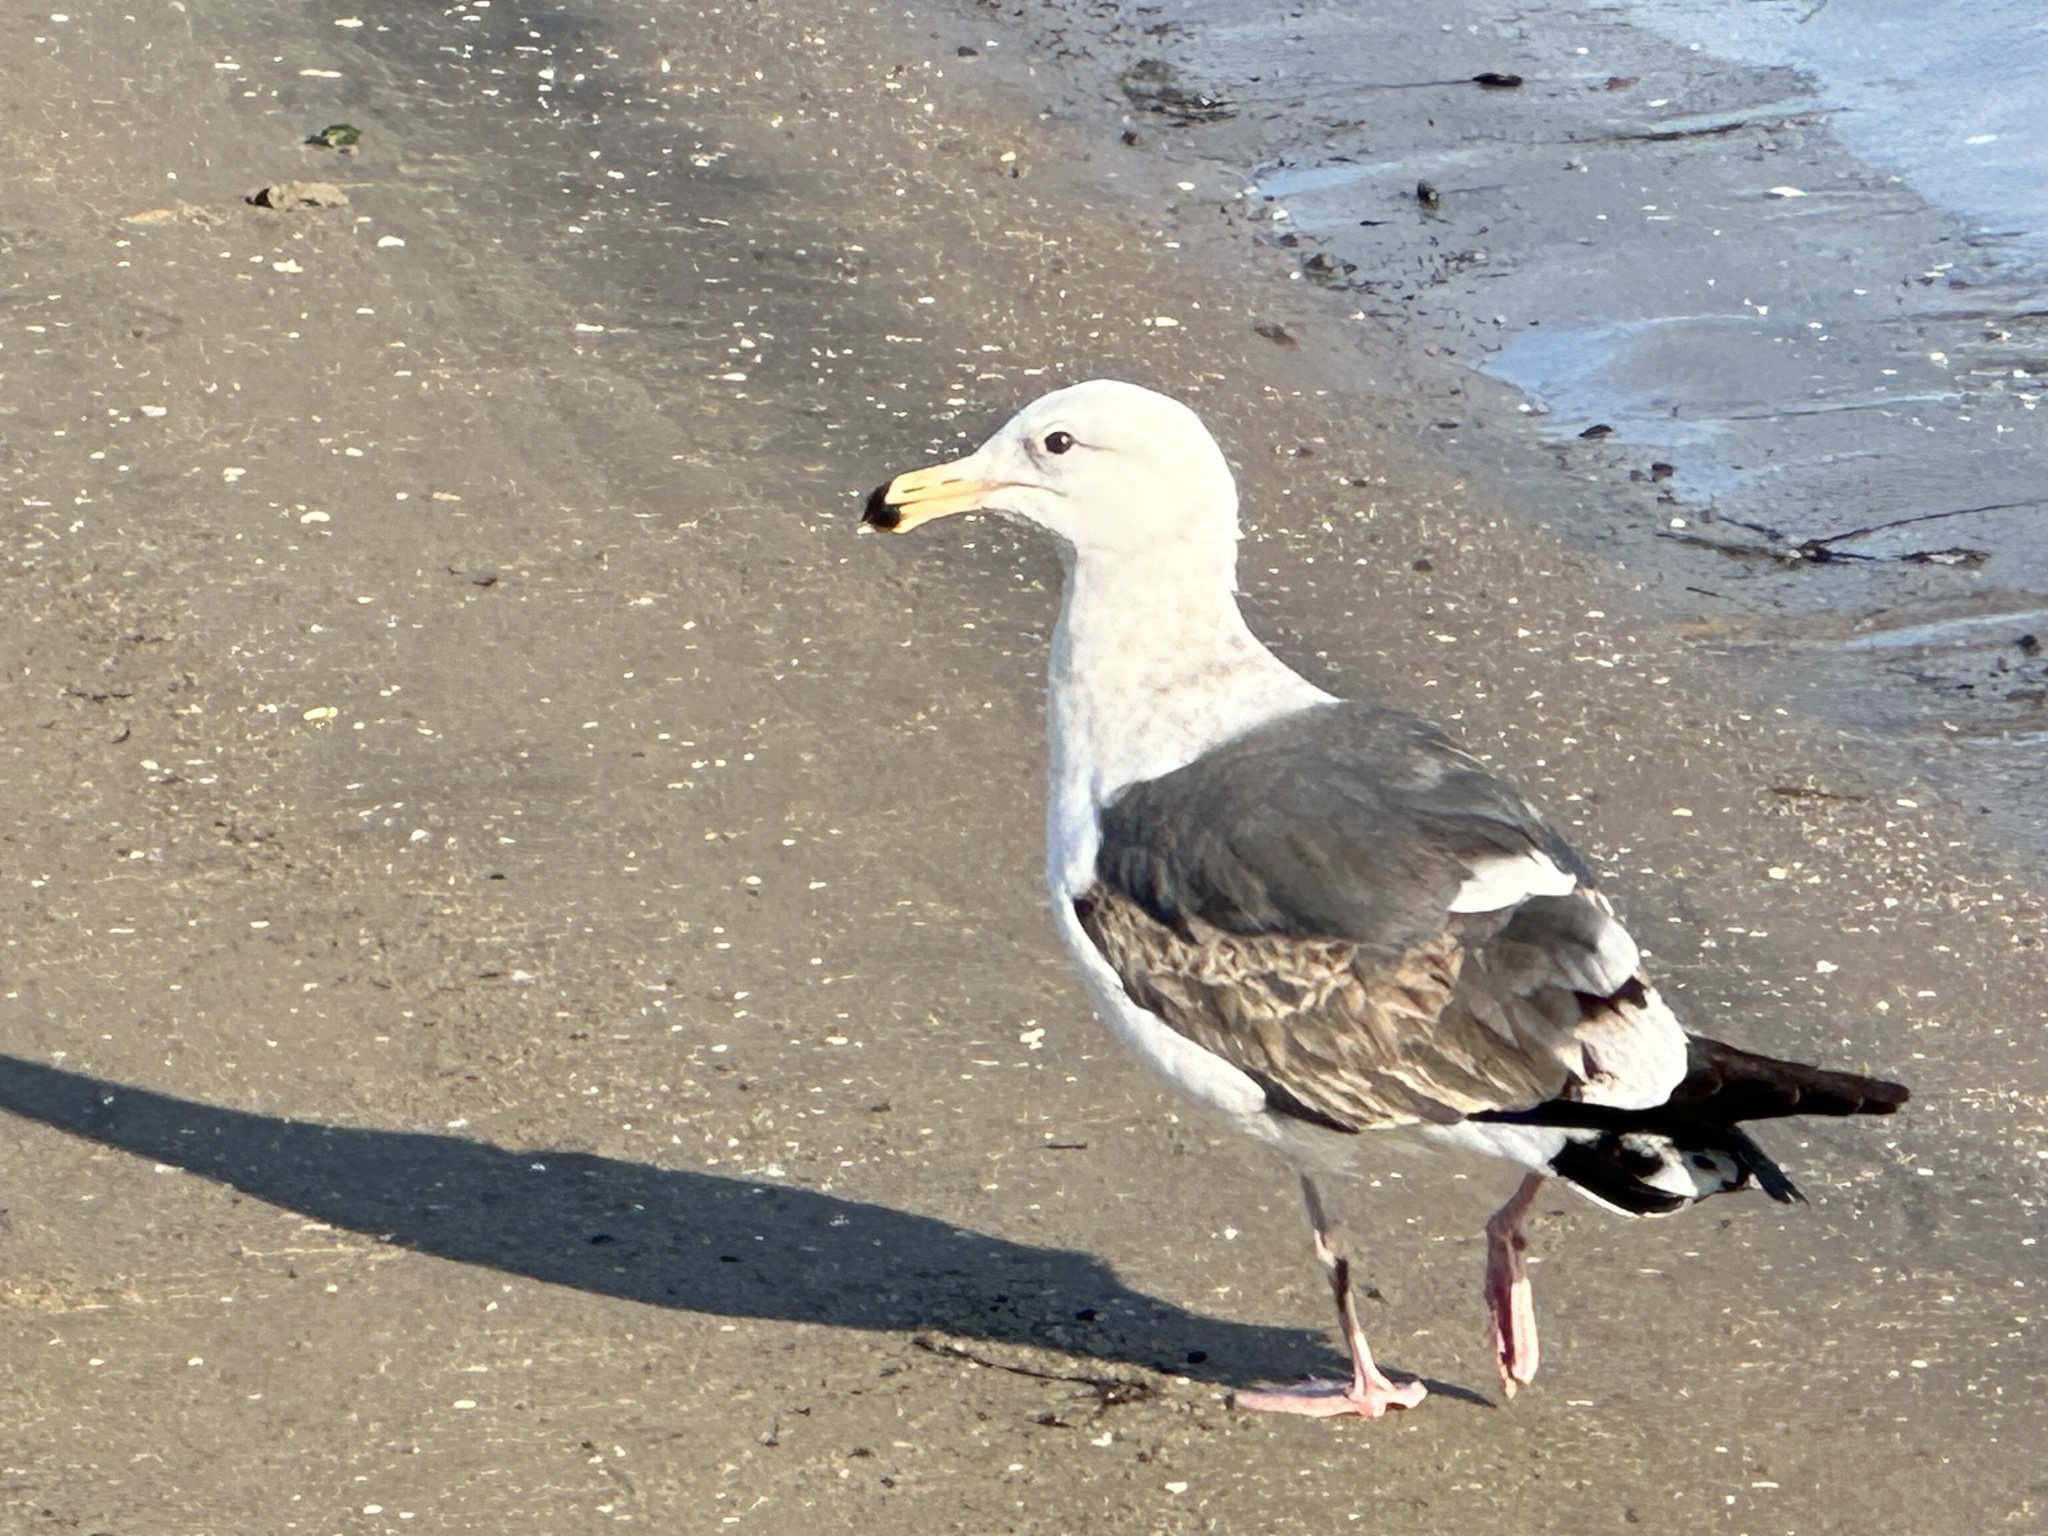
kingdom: Animalia
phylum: Chordata
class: Aves
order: Charadriiformes
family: Laridae
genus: Larus
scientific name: Larus occidentalis
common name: Western gull
